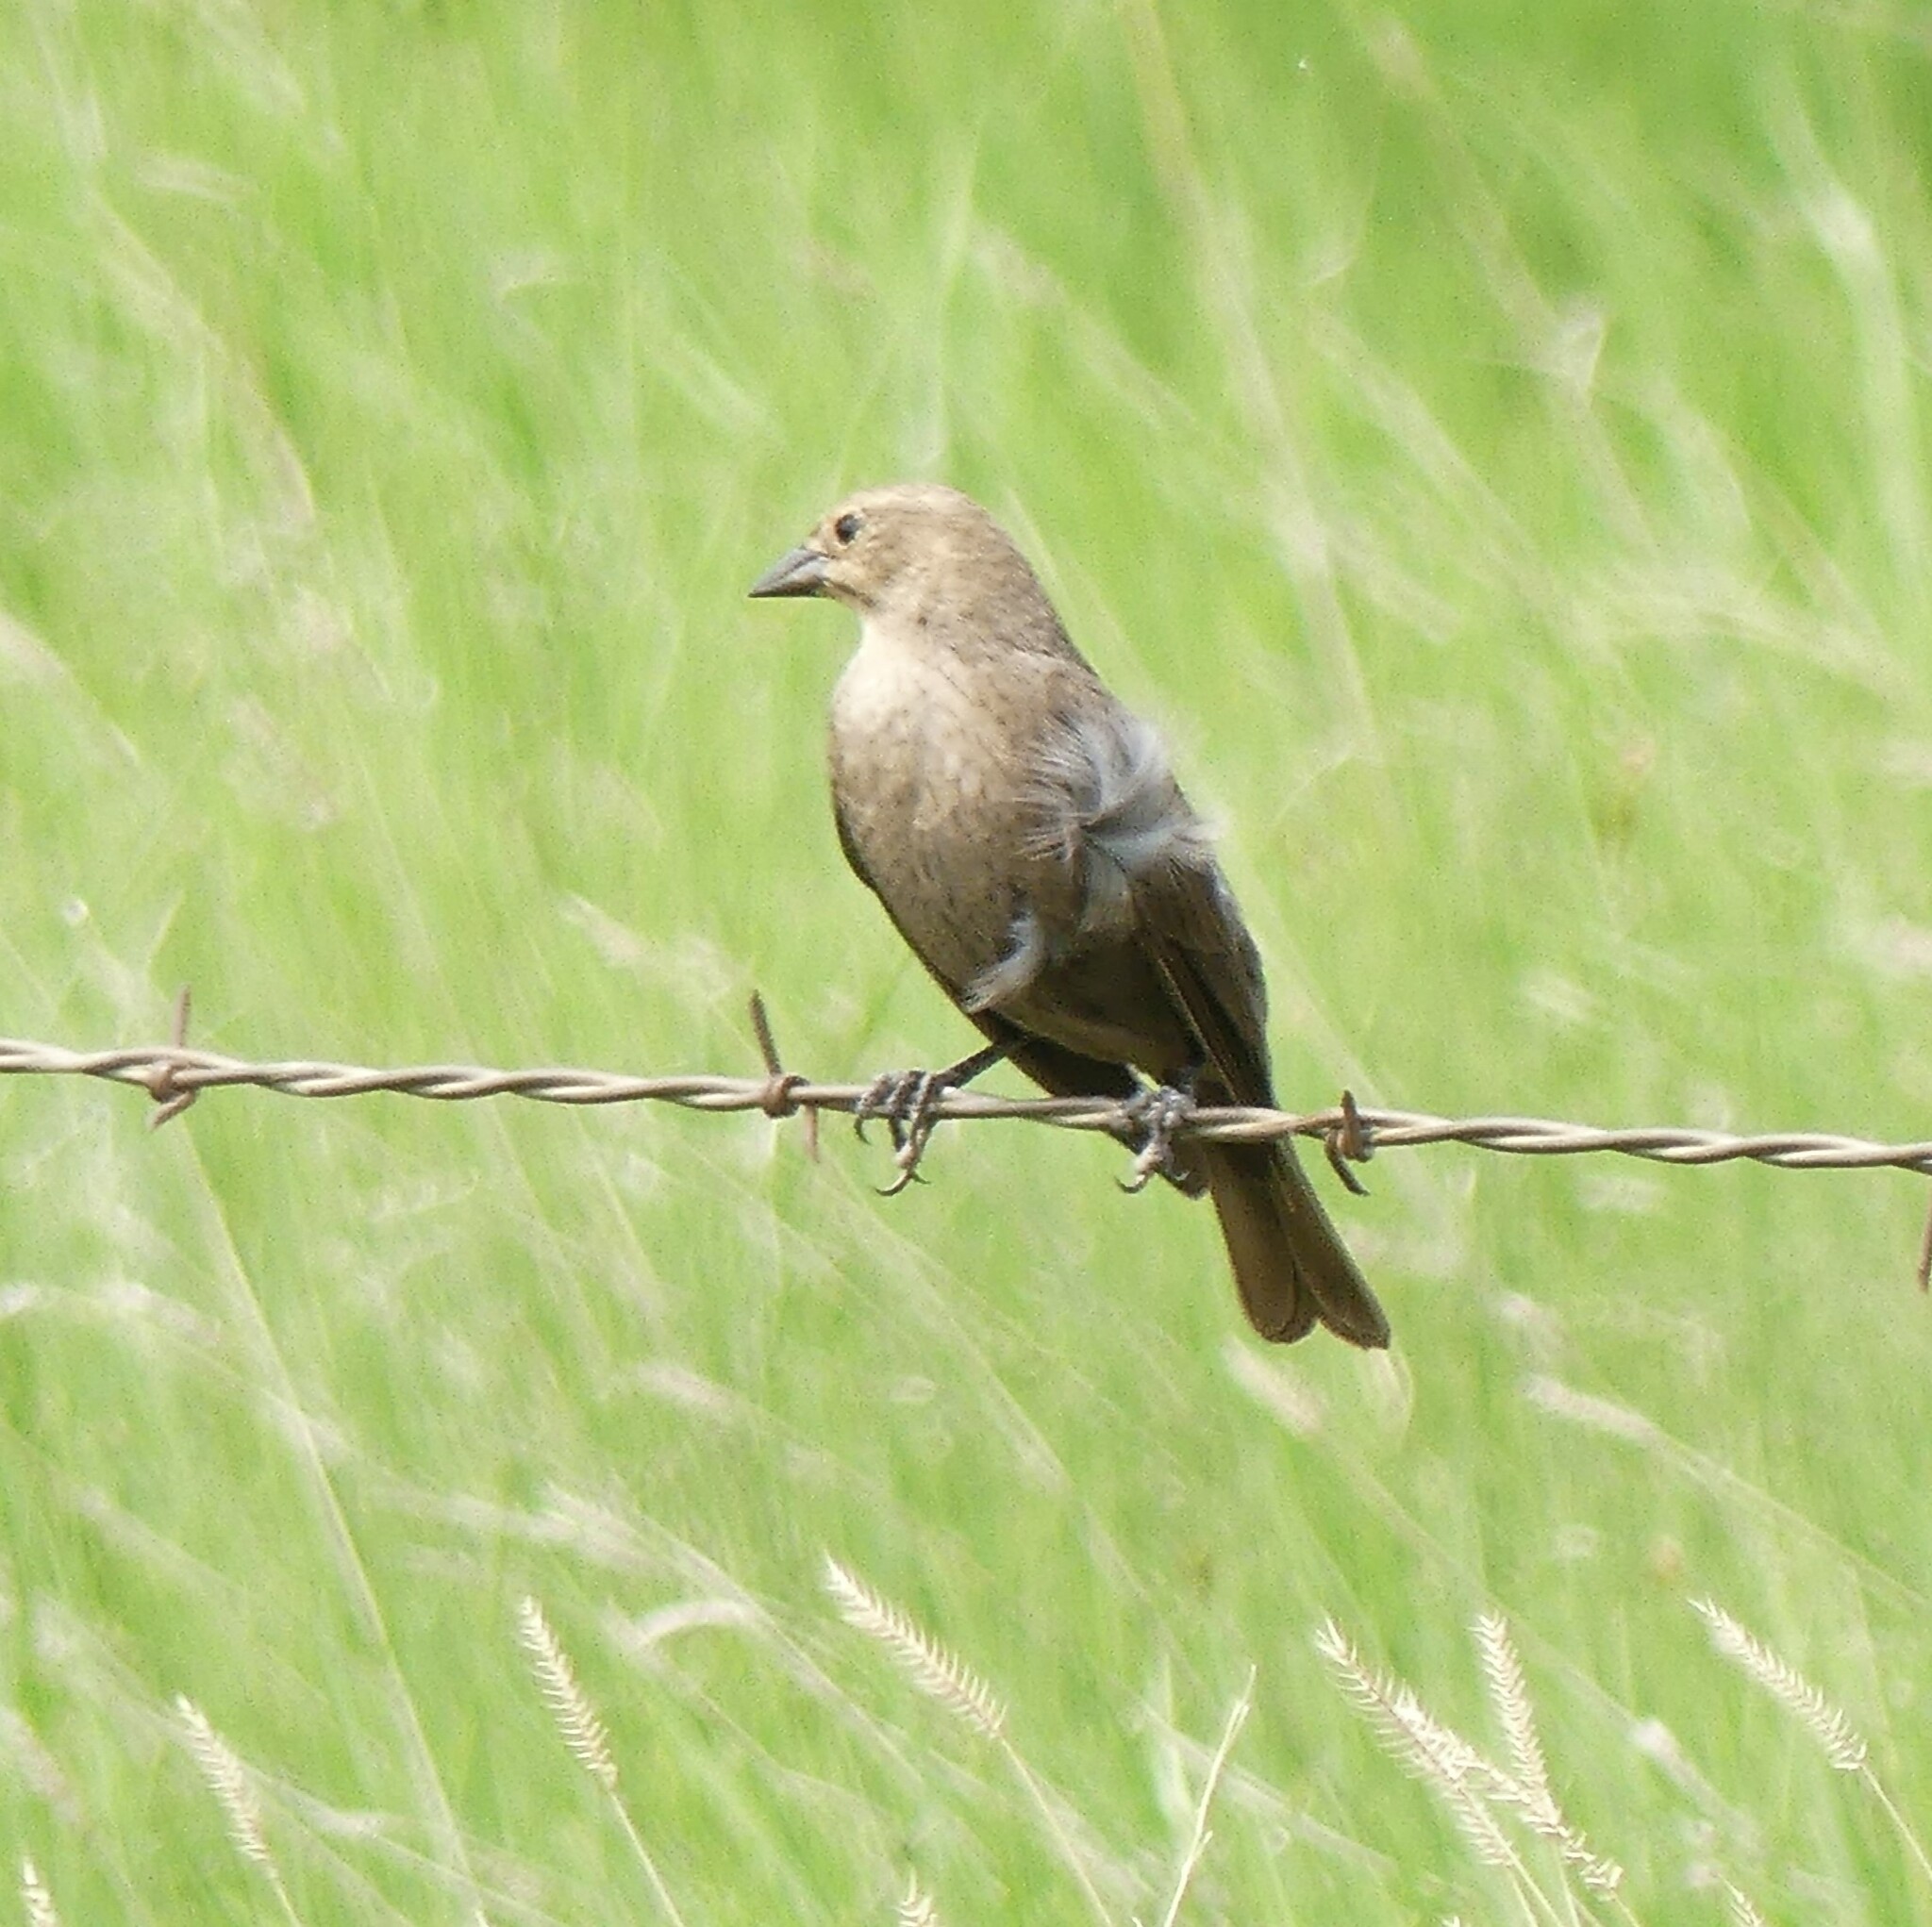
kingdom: Animalia
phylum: Chordata
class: Aves
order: Passeriformes
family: Icteridae
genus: Molothrus
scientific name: Molothrus ater
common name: Brown-headed cowbird
